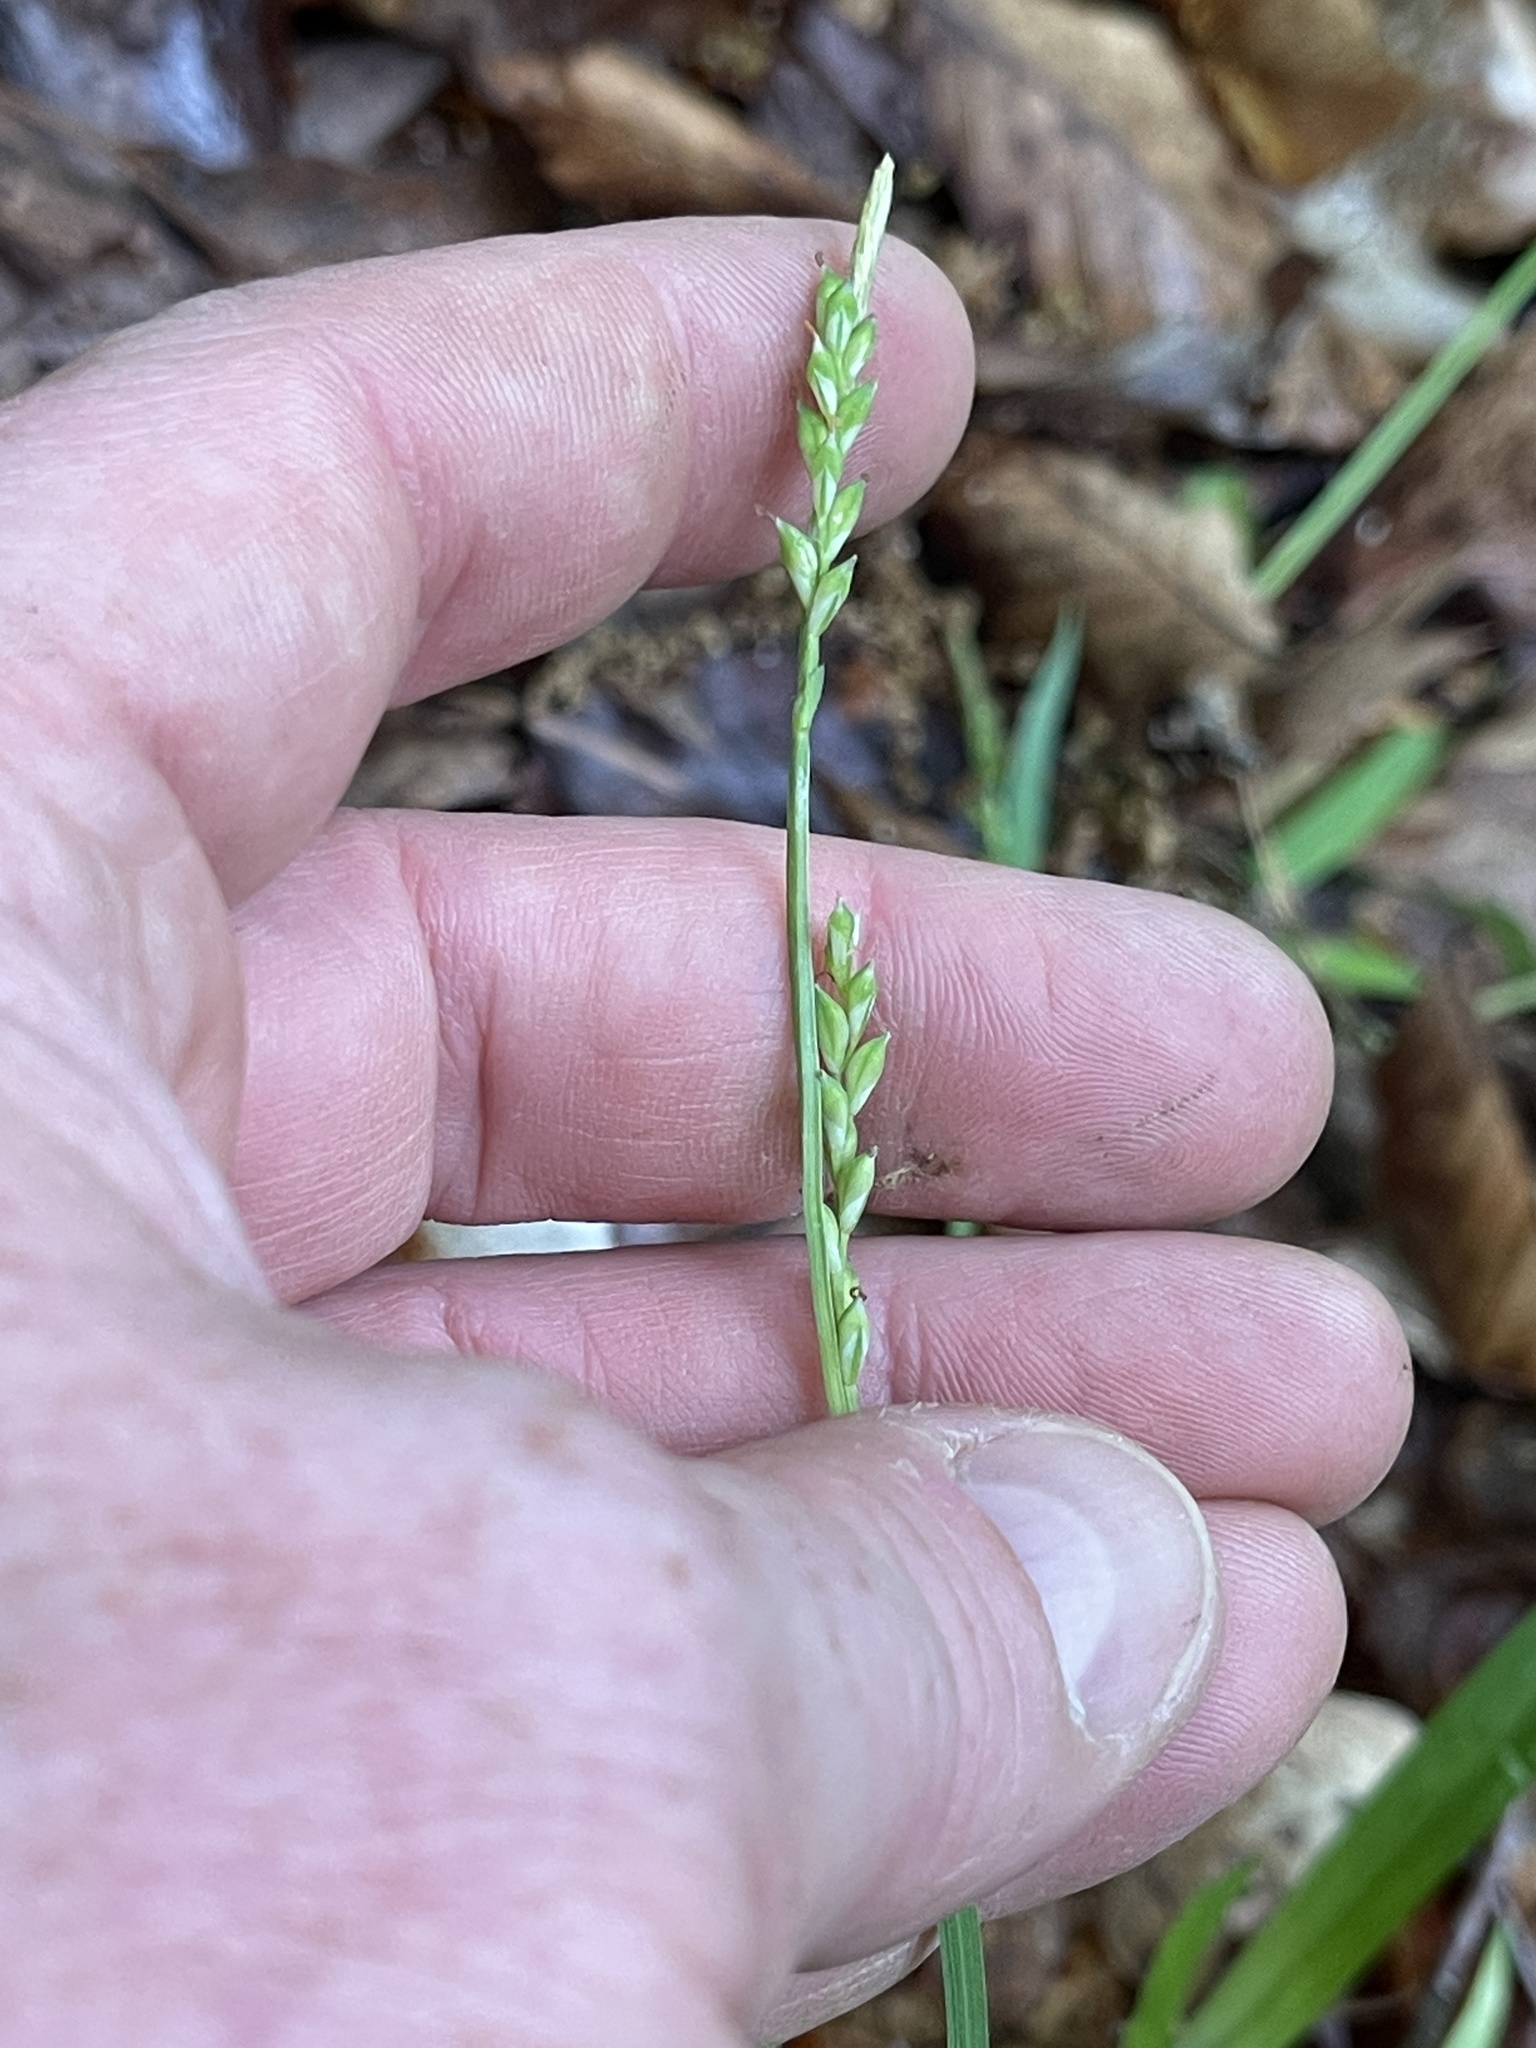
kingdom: Plantae
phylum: Tracheophyta
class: Liliopsida
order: Poales
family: Cyperaceae
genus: Carex
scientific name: Carex leptonervia
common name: Few-nerved wood sedge
